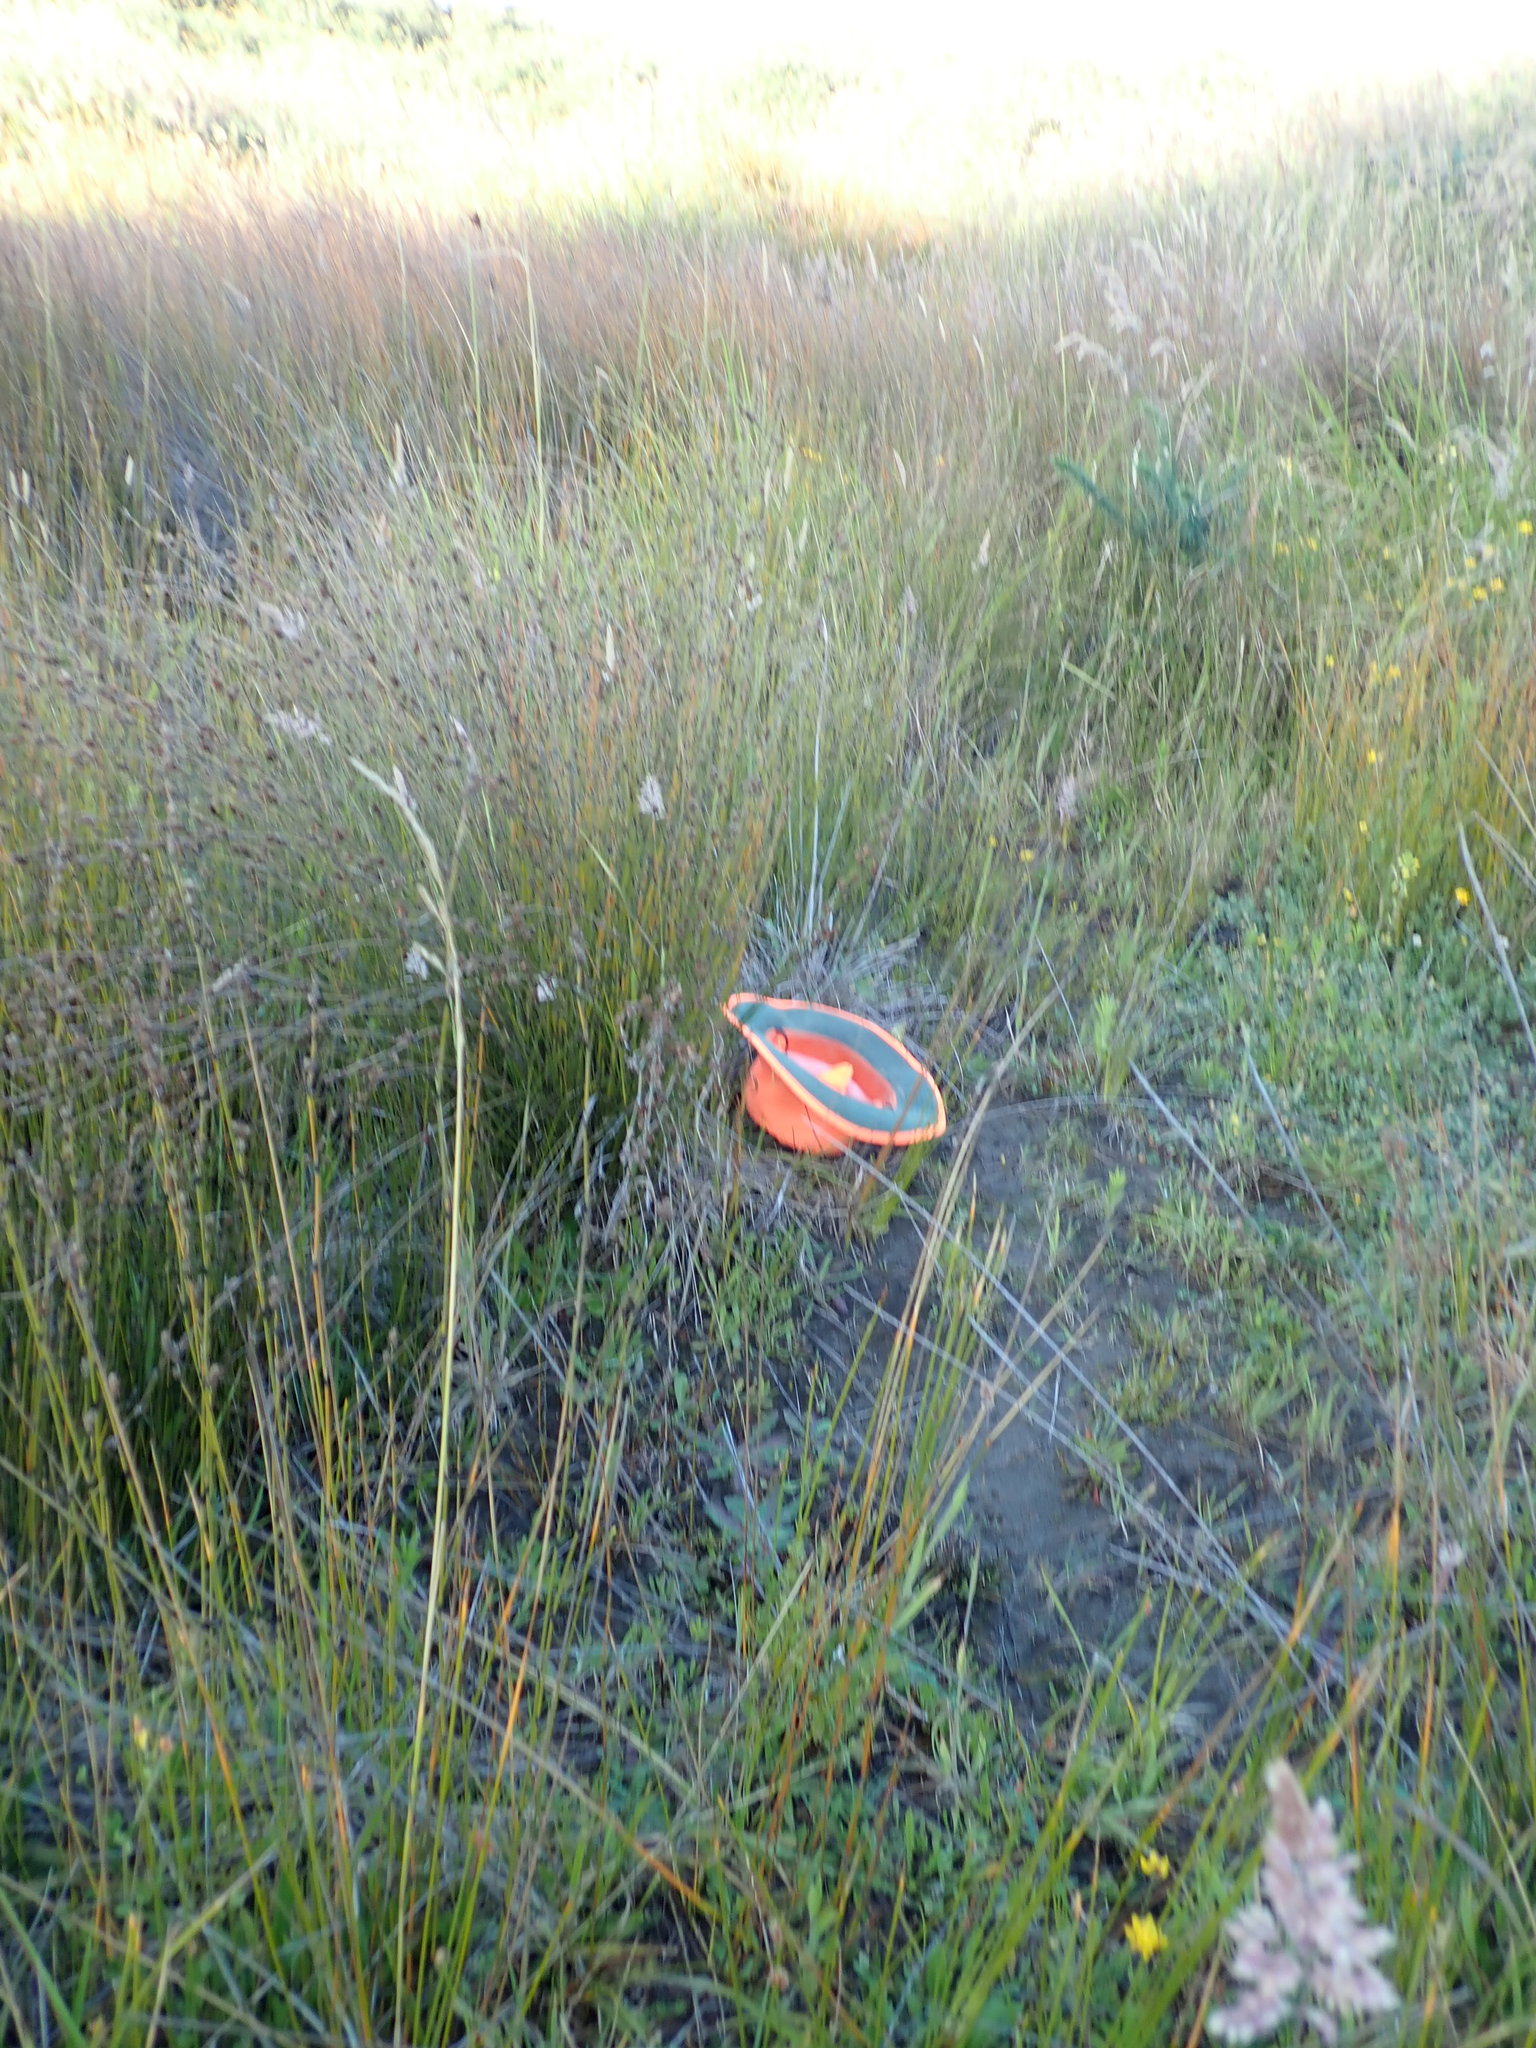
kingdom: Plantae
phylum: Tracheophyta
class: Liliopsida
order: Alismatales
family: Juncaginaceae
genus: Triglochin
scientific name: Triglochin striata
